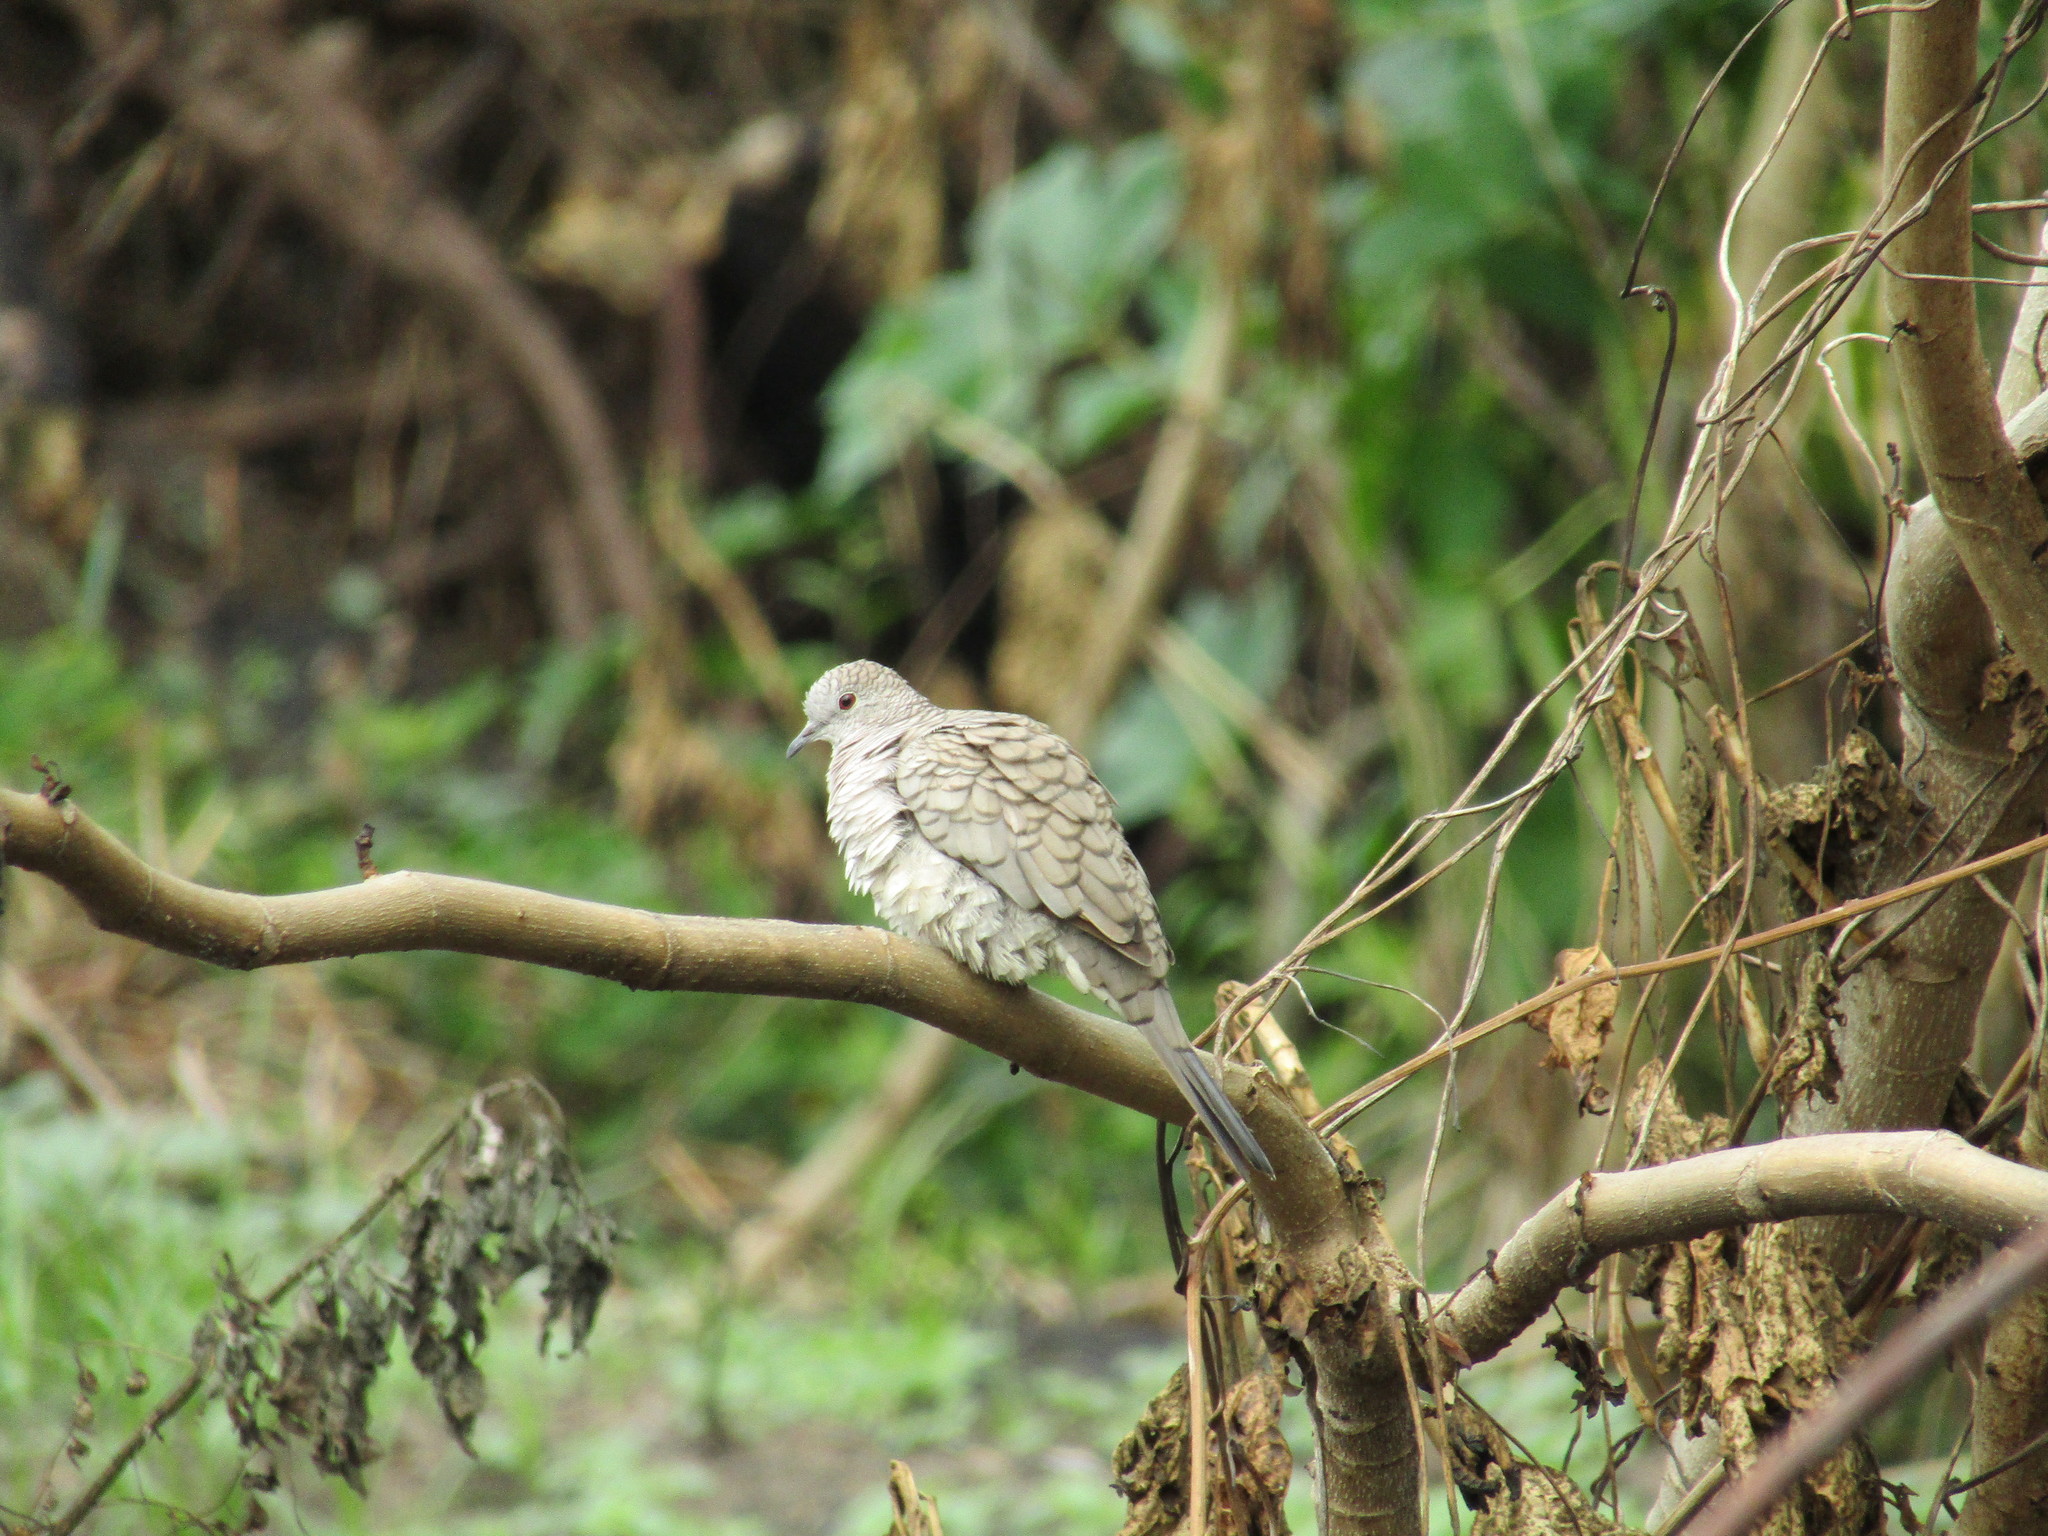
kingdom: Animalia
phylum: Chordata
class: Aves
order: Columbiformes
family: Columbidae
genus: Columbina
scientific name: Columbina inca
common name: Inca dove
